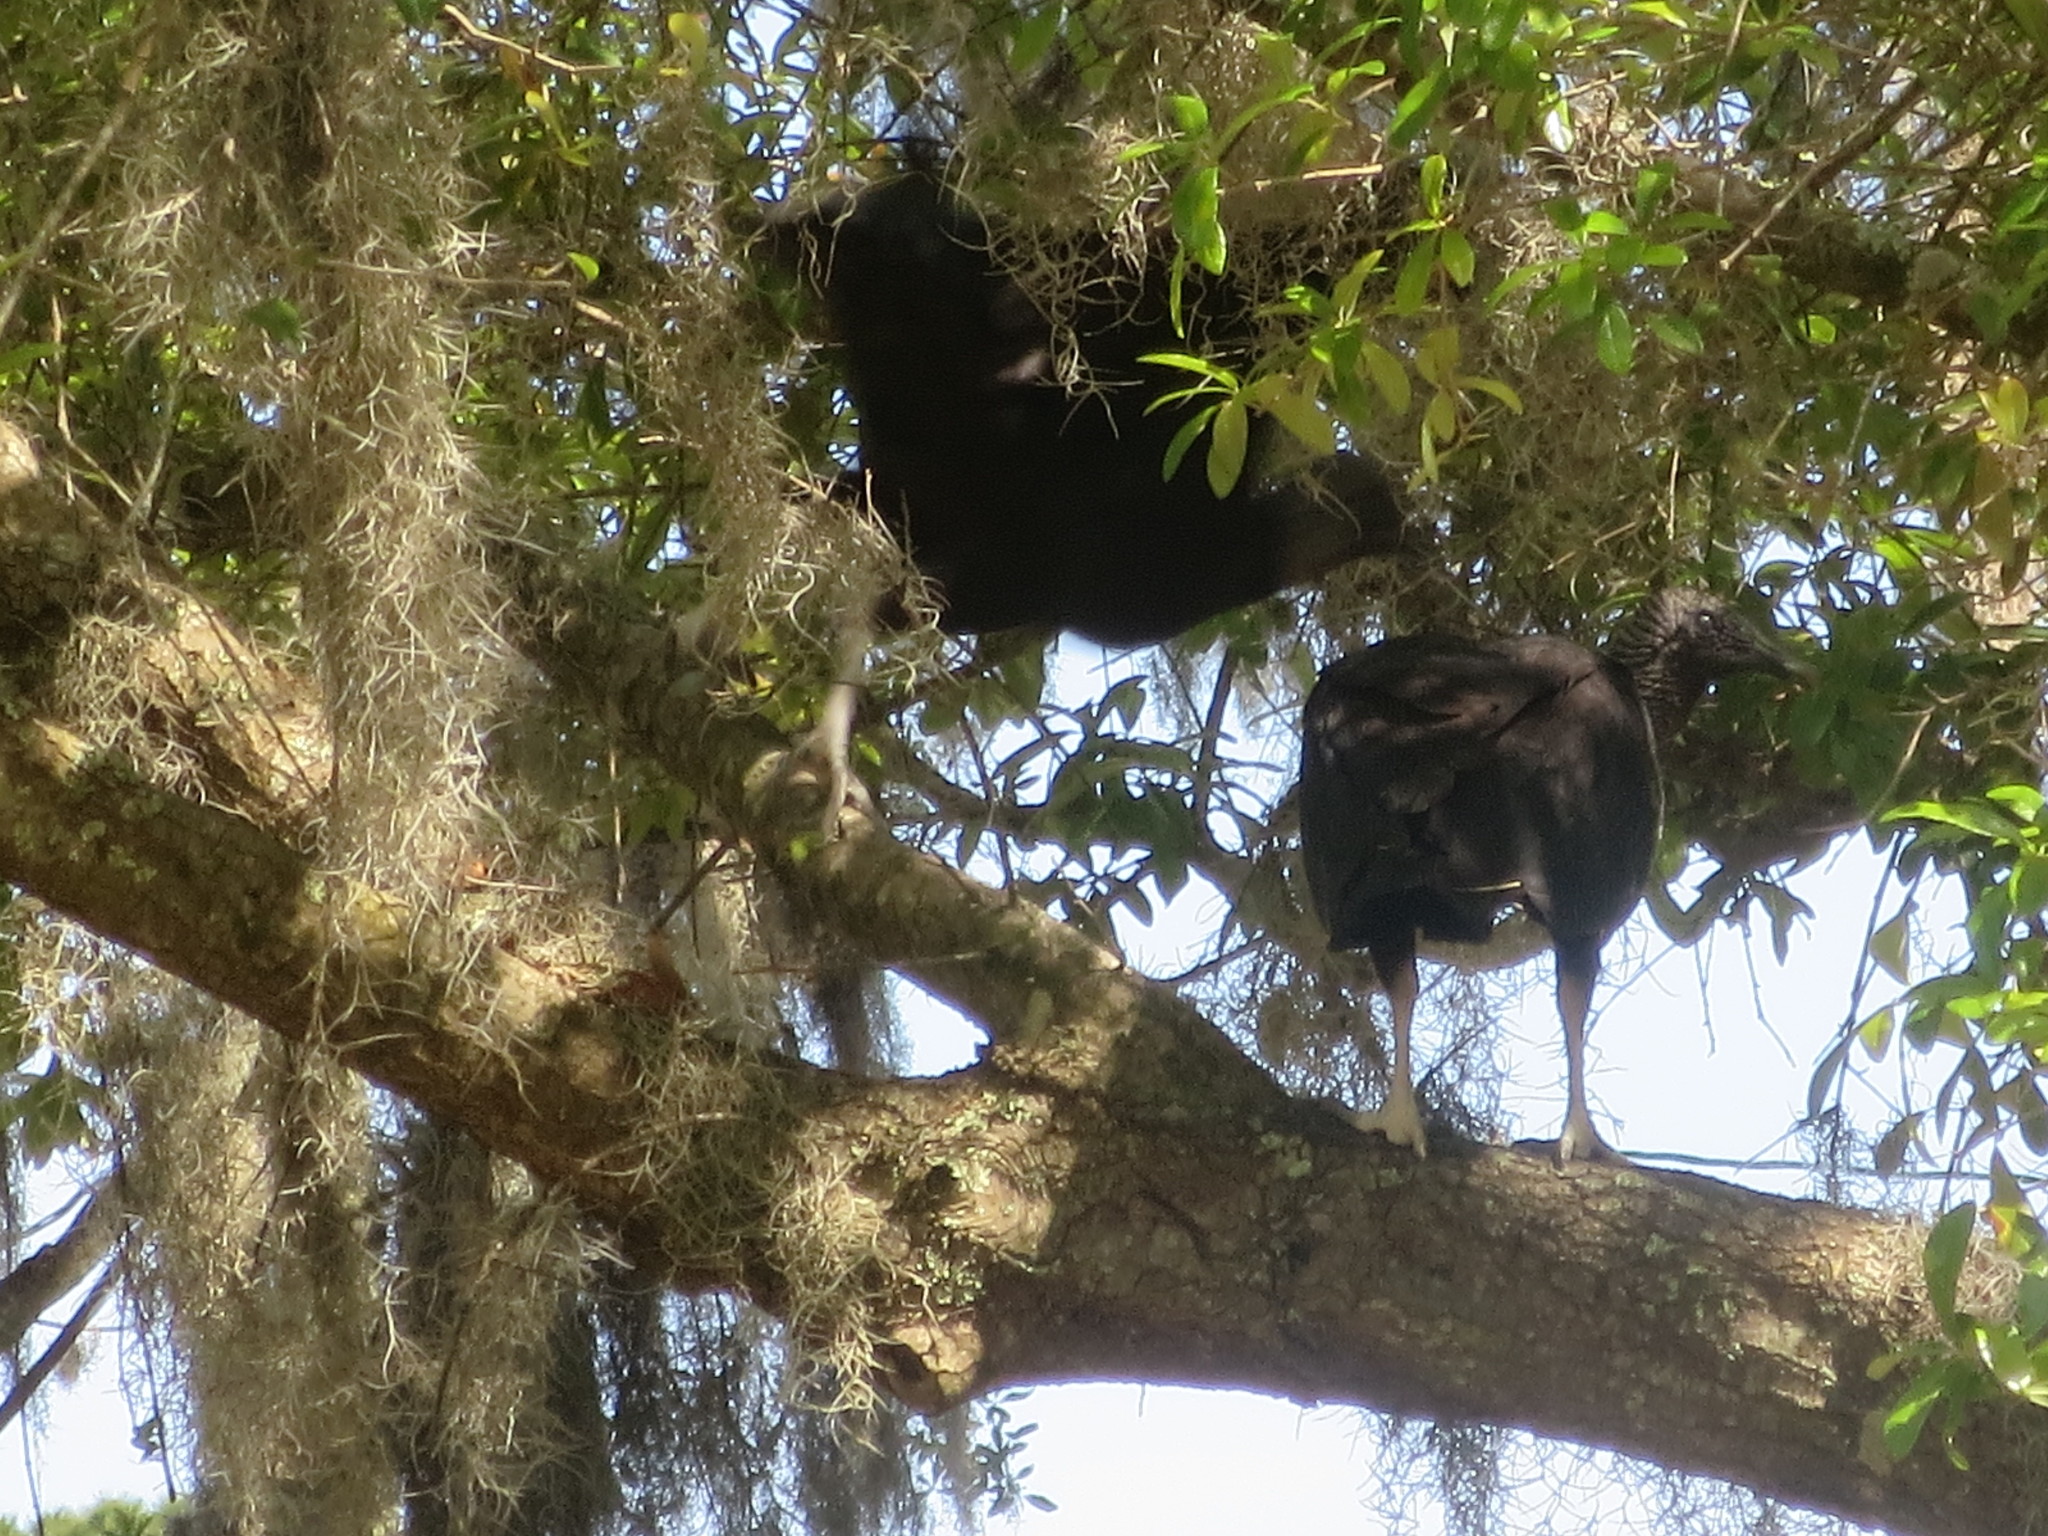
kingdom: Animalia
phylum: Chordata
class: Aves
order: Accipitriformes
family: Cathartidae
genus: Coragyps
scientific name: Coragyps atratus
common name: Black vulture
